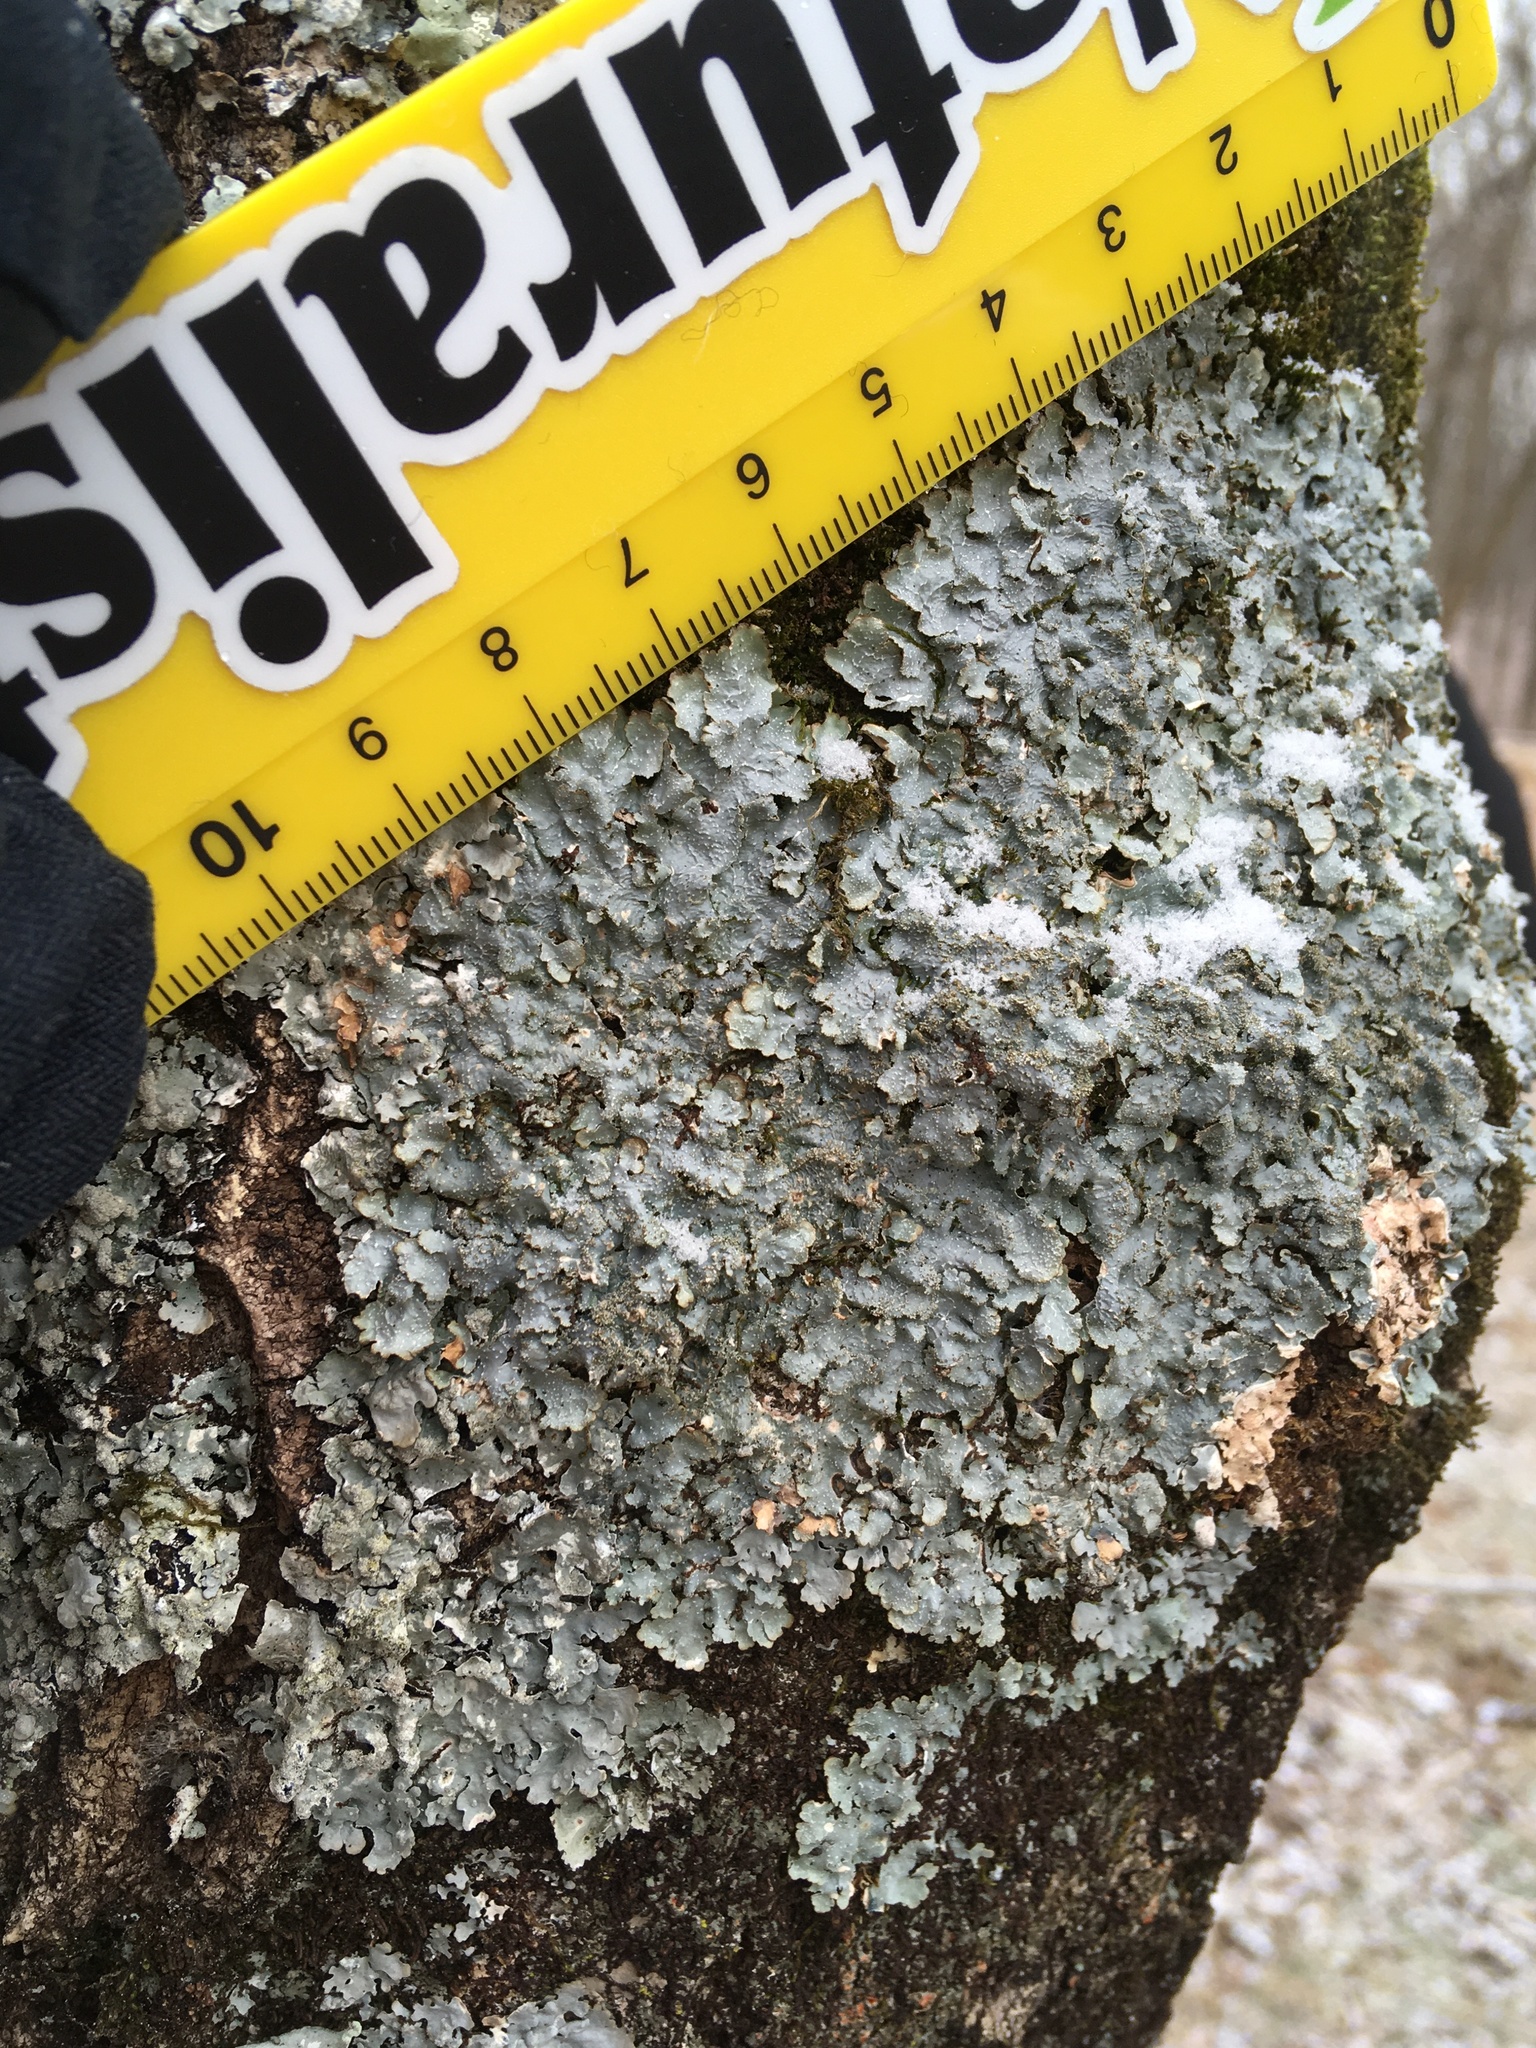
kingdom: Fungi
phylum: Ascomycota
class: Lecanoromycetes
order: Lecanorales
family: Parmeliaceae
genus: Punctelia
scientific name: Punctelia rudecta
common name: Rough speckled shield lichen
